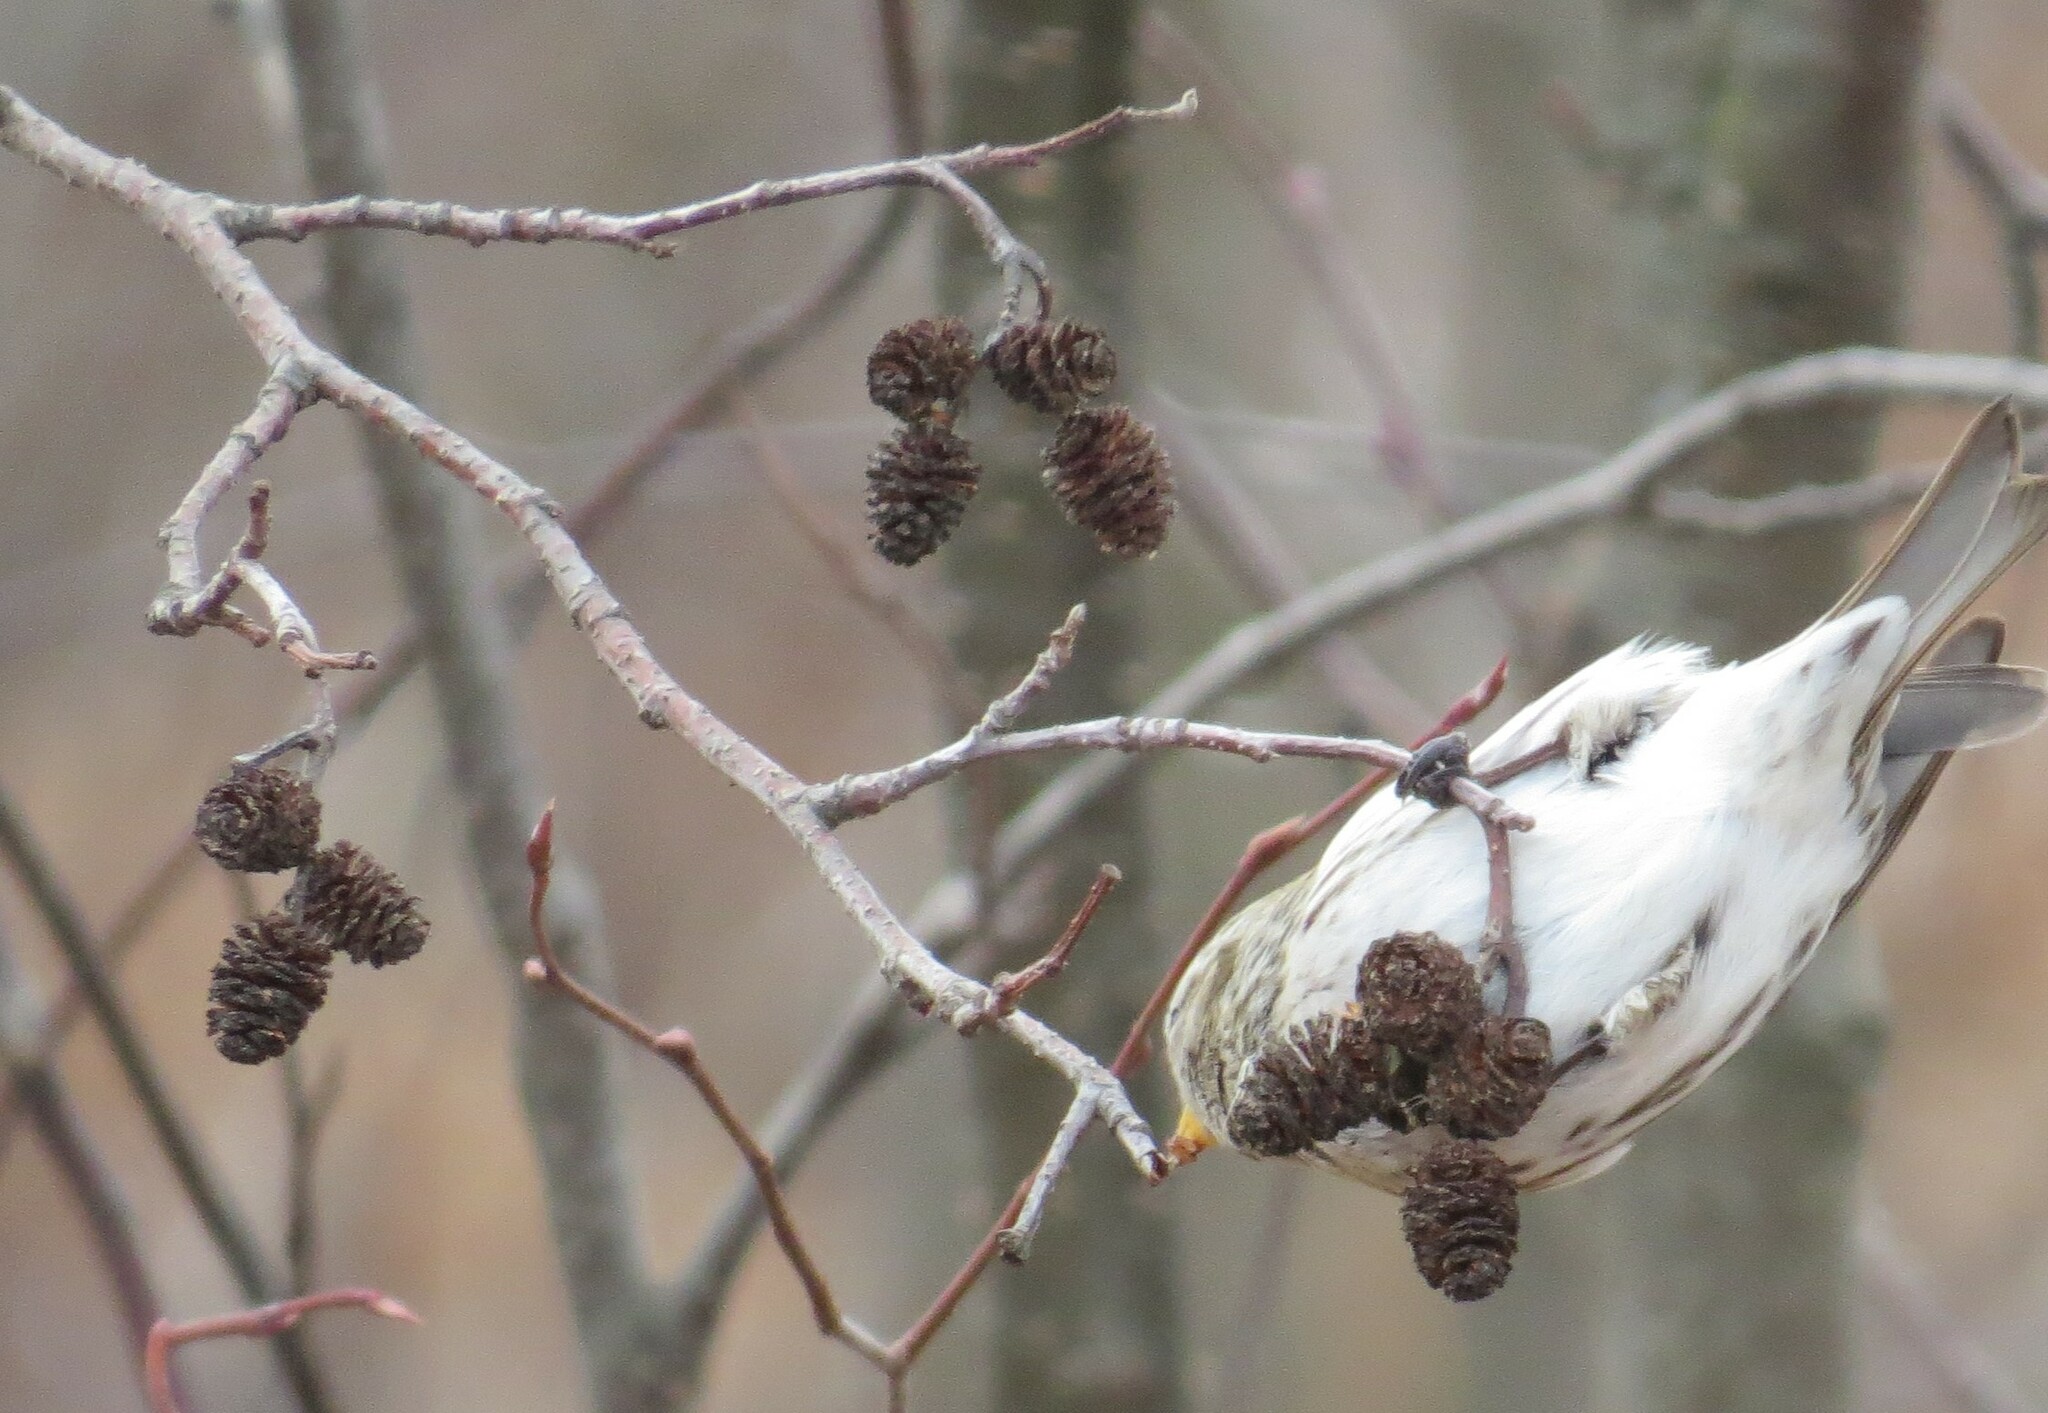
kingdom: Animalia
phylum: Chordata
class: Aves
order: Passeriformes
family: Fringillidae
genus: Acanthis
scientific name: Acanthis flammea
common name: Common redpoll
